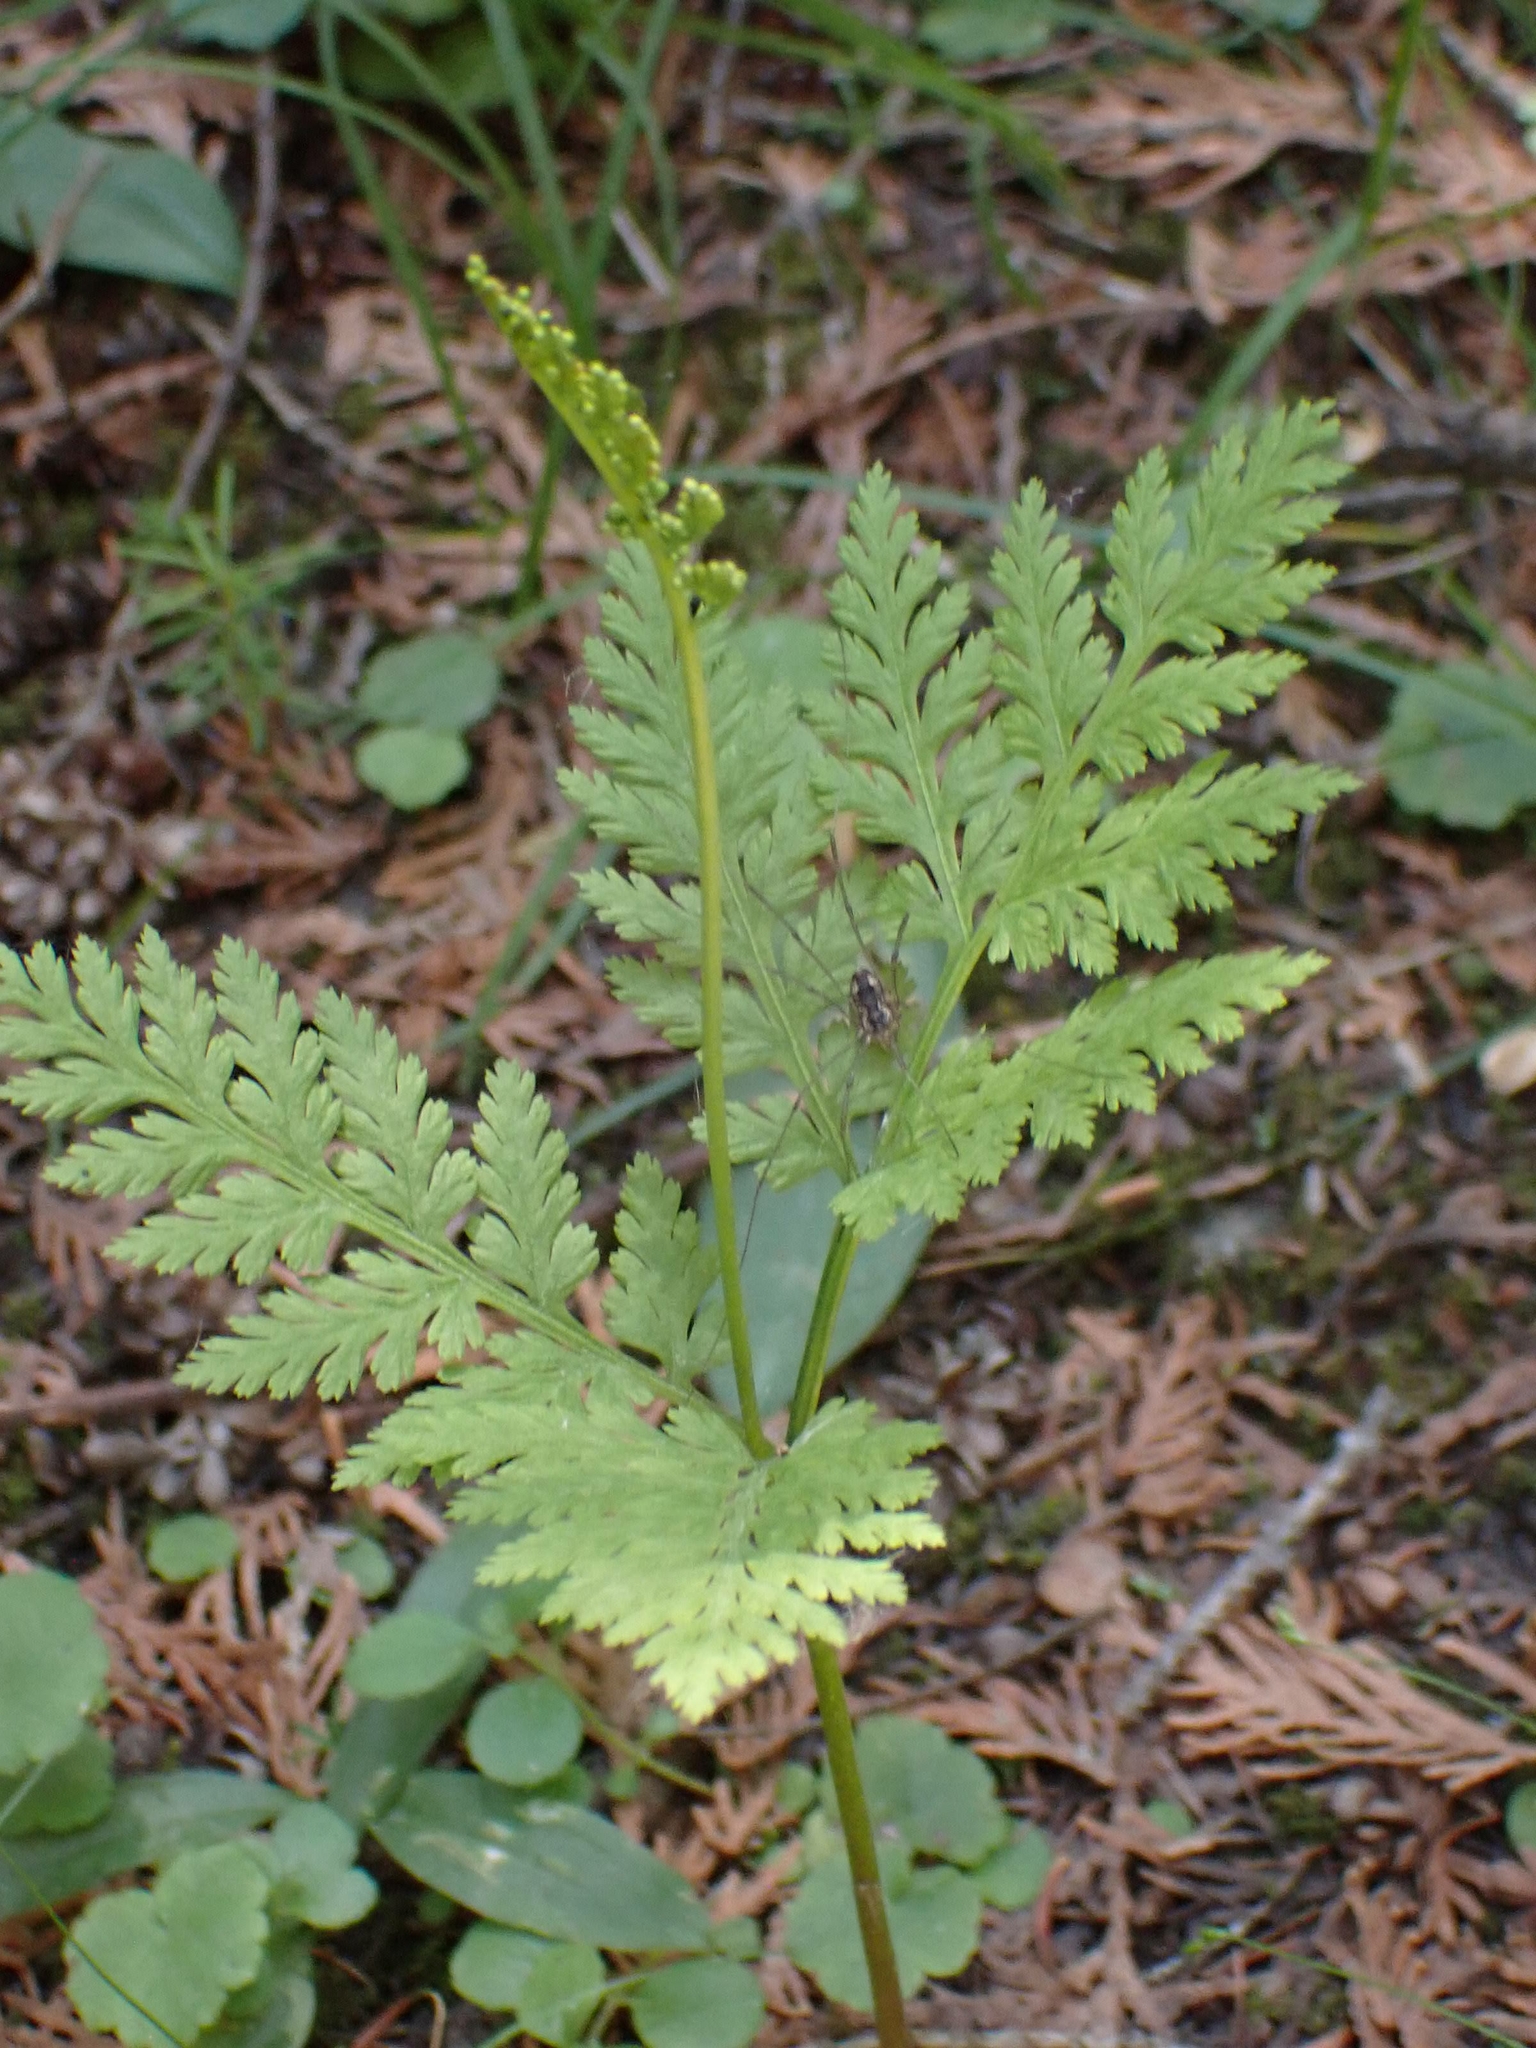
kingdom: Plantae
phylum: Tracheophyta
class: Polypodiopsida
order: Ophioglossales
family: Ophioglossaceae
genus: Botrypus
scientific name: Botrypus virginianus
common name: Common grapefern
